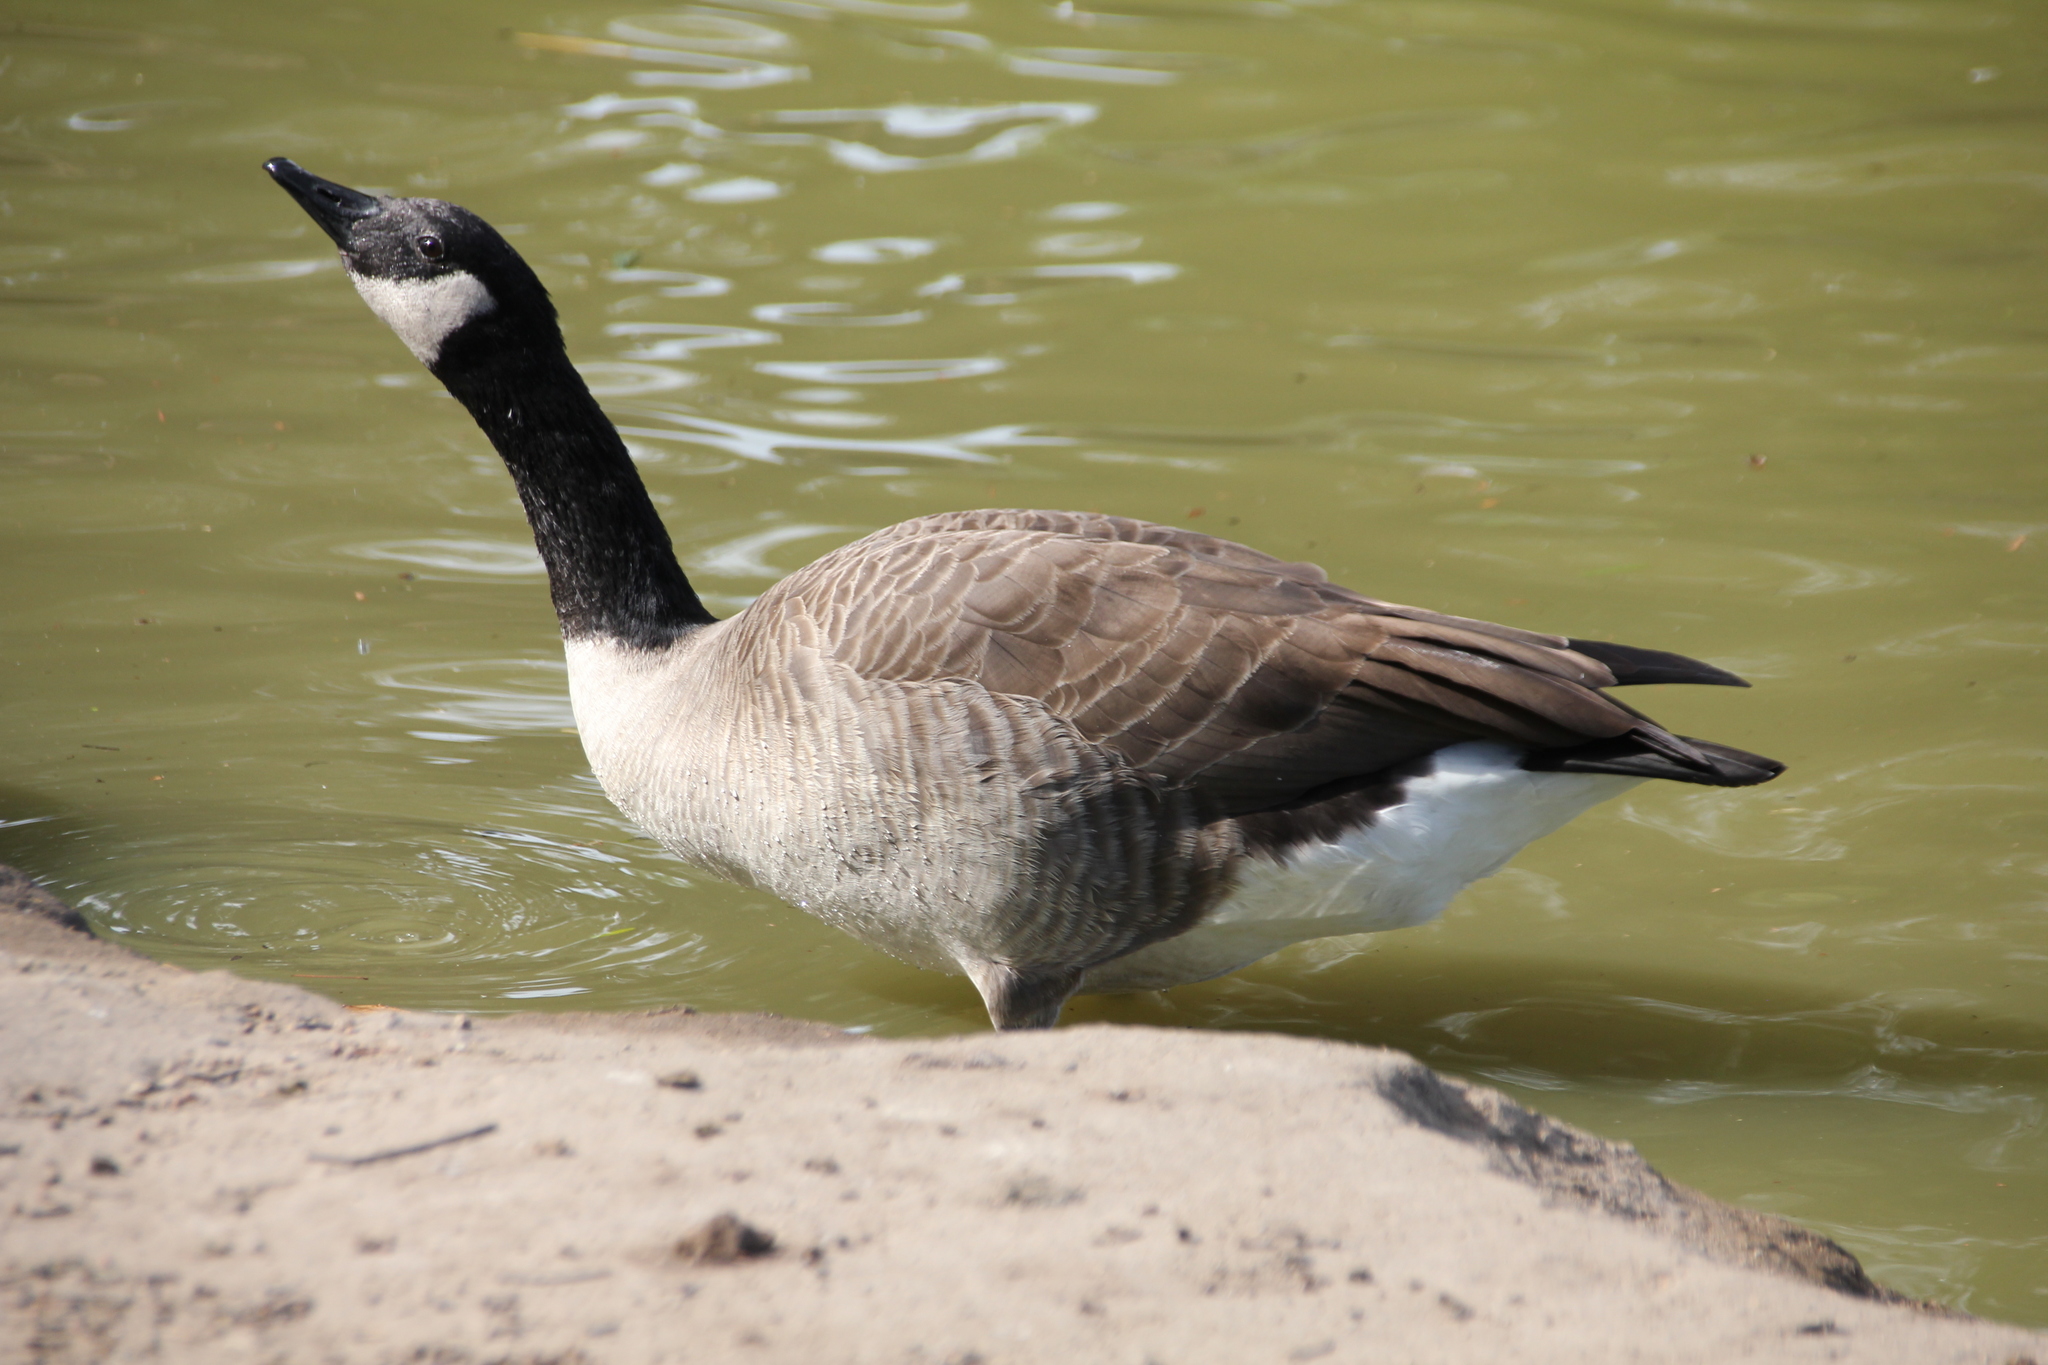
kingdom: Animalia
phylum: Chordata
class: Aves
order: Anseriformes
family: Anatidae
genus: Branta
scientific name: Branta canadensis
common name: Canada goose
